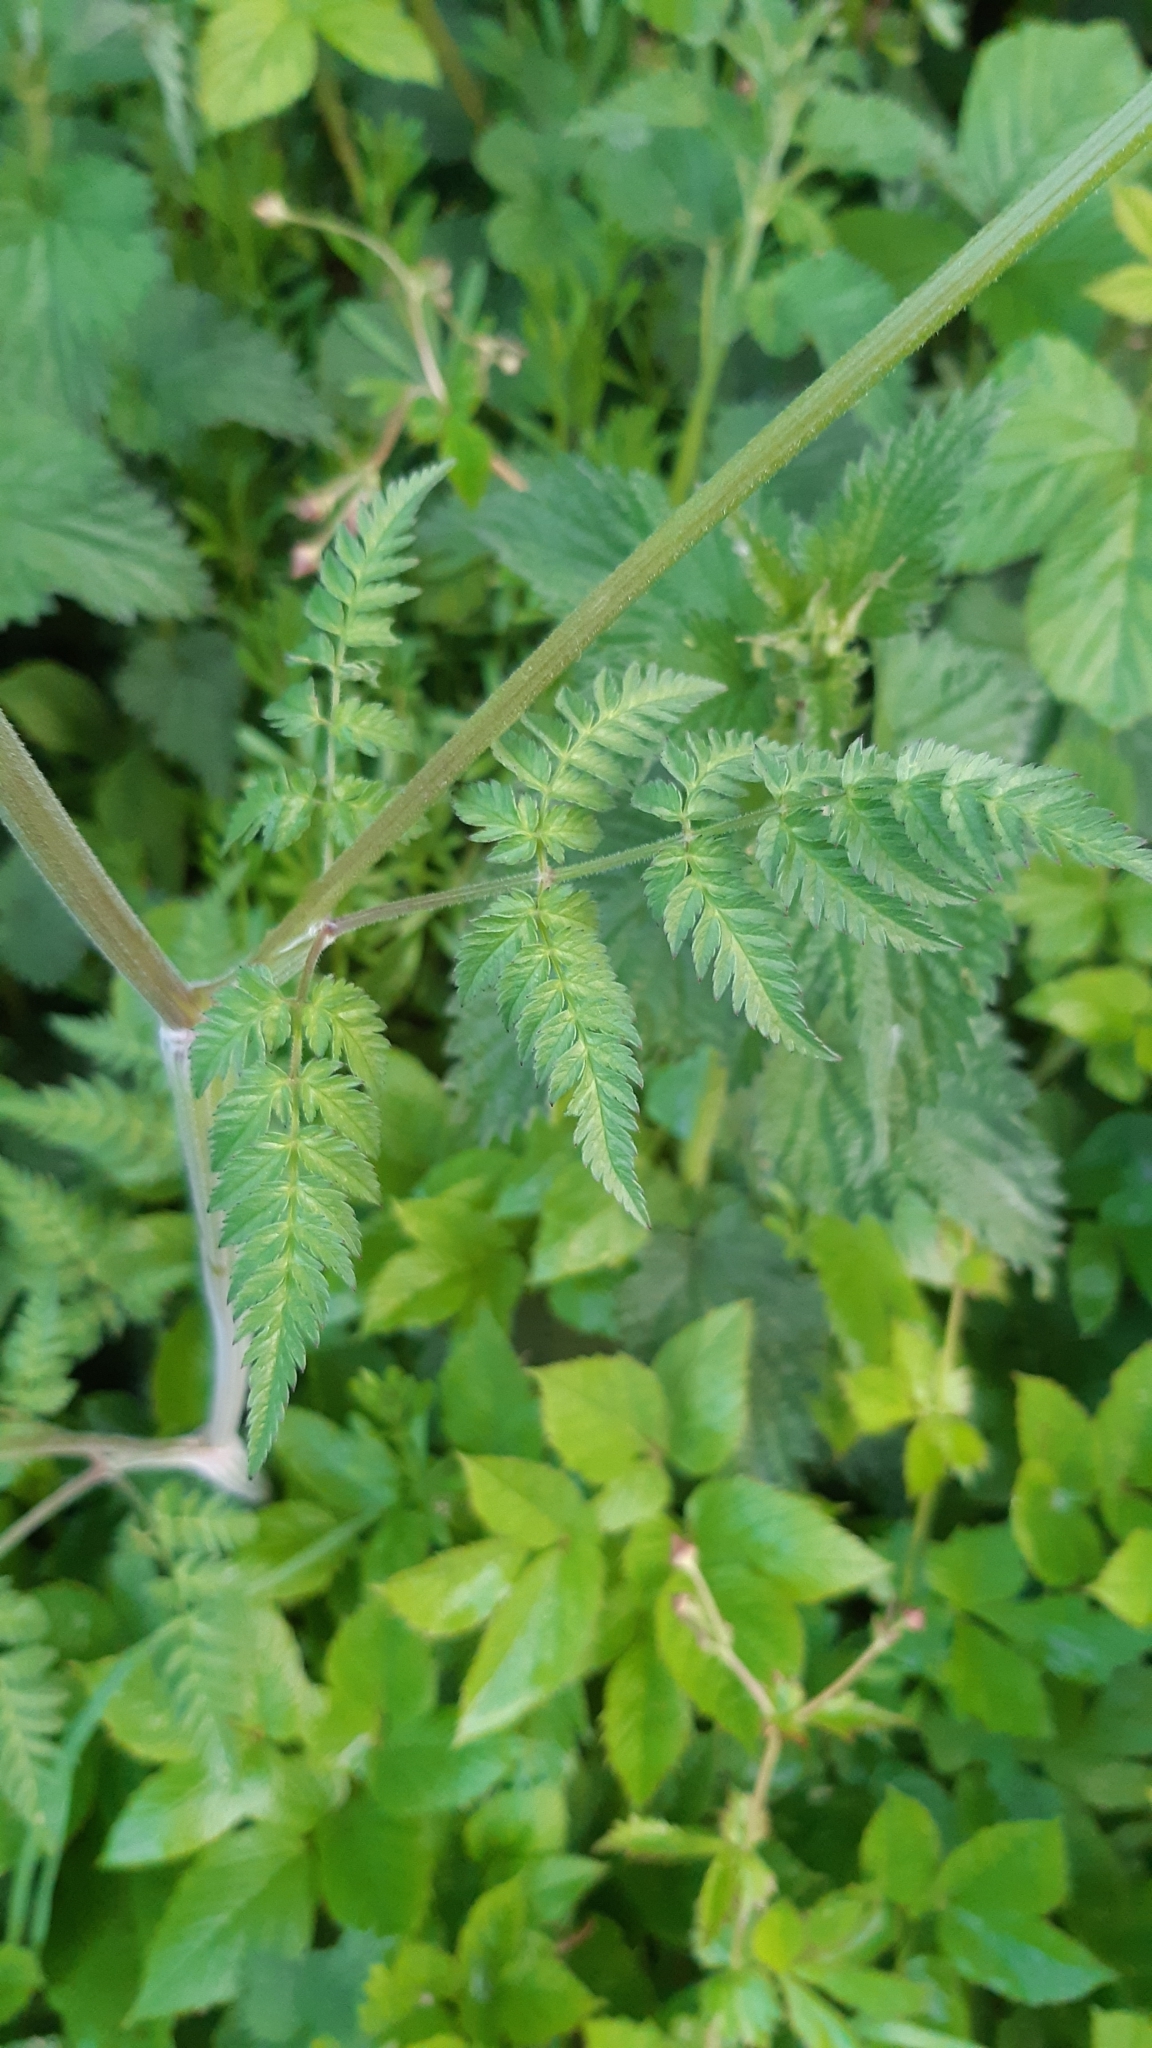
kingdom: Plantae
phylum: Tracheophyta
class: Magnoliopsida
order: Apiales
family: Apiaceae
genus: Anthriscus
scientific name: Anthriscus sylvestris
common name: Cow parsley
